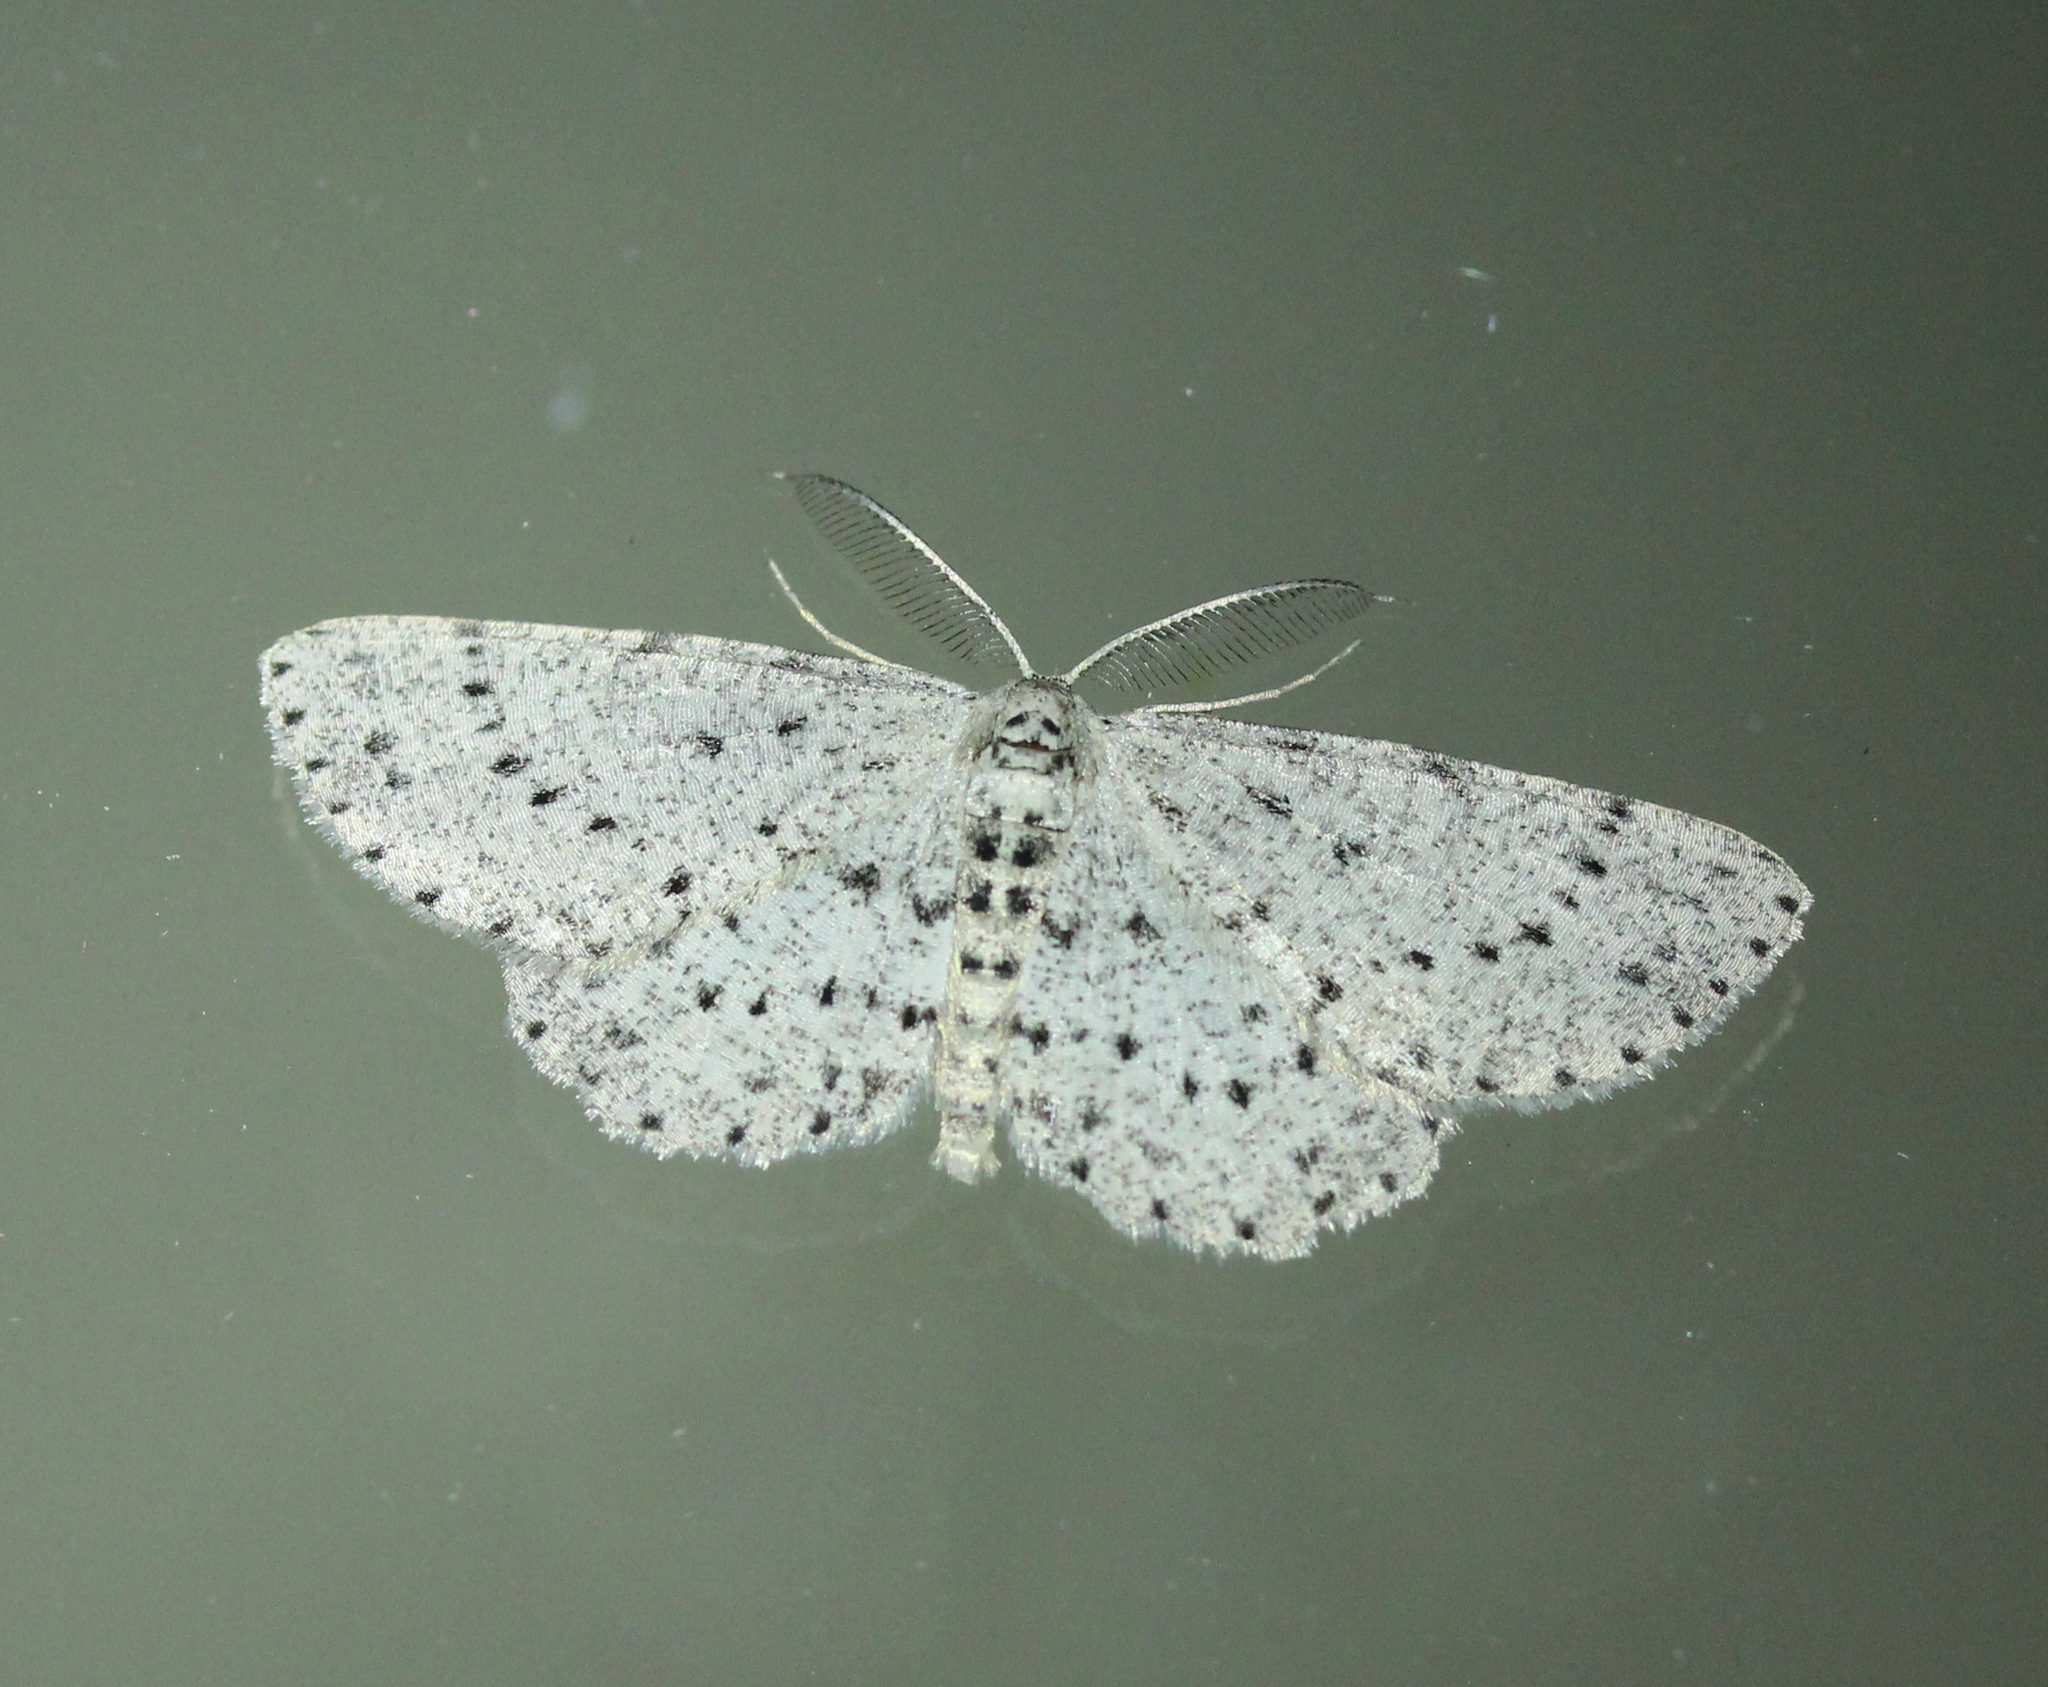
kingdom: Animalia
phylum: Arthropoda
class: Insecta
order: Lepidoptera
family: Geometridae
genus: Glena
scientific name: Glena cribrataria
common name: Dotted gray
